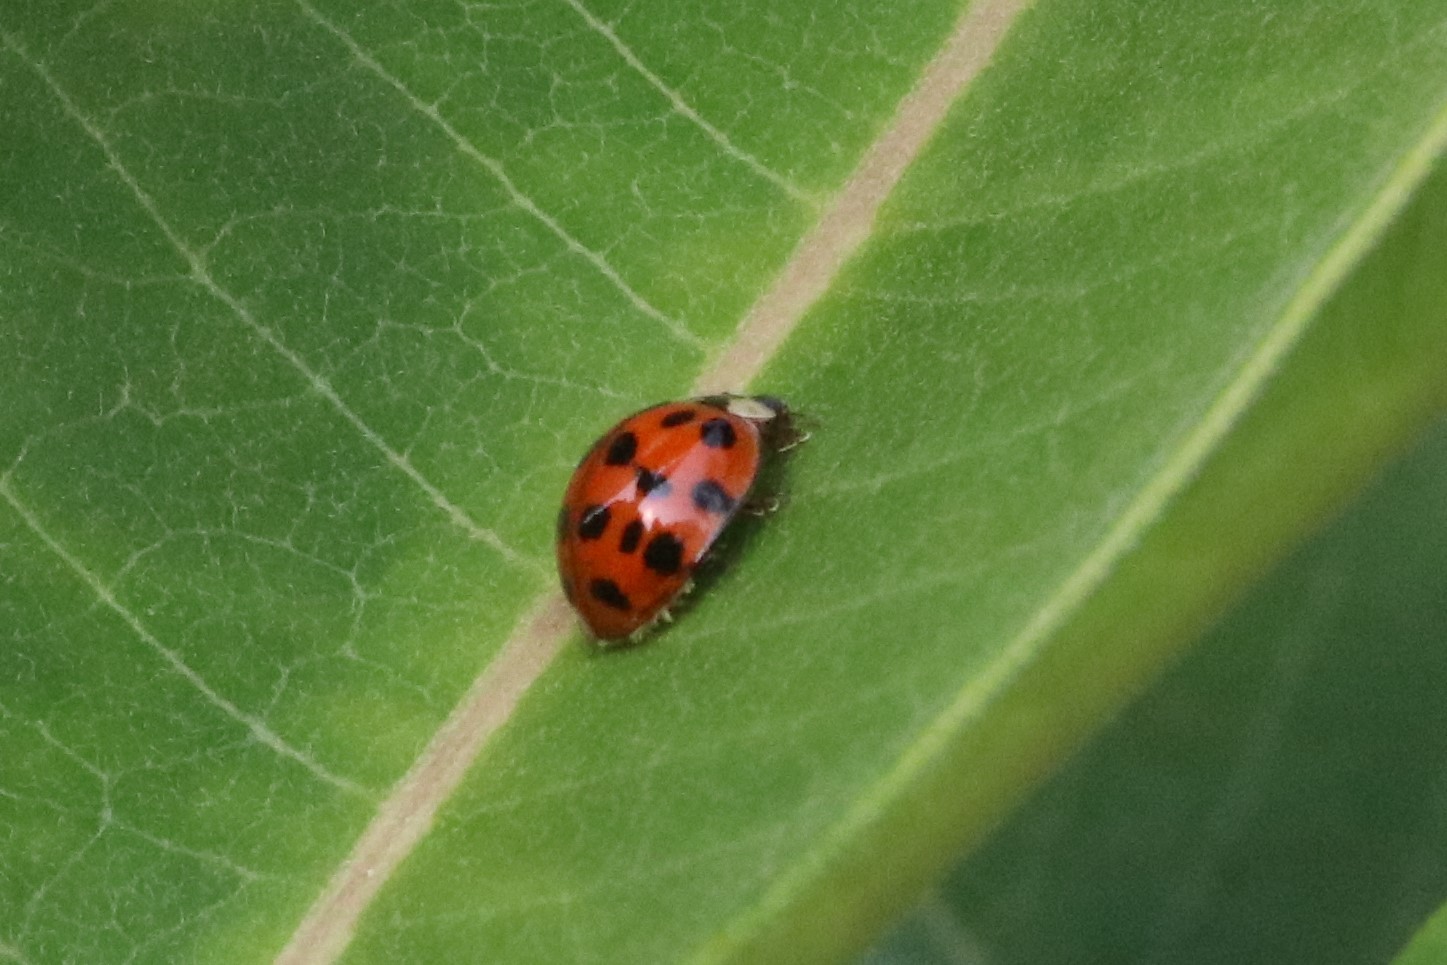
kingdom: Animalia
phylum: Arthropoda
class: Insecta
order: Coleoptera
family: Coccinellidae
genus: Harmonia
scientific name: Harmonia axyridis
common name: Harlequin ladybird
